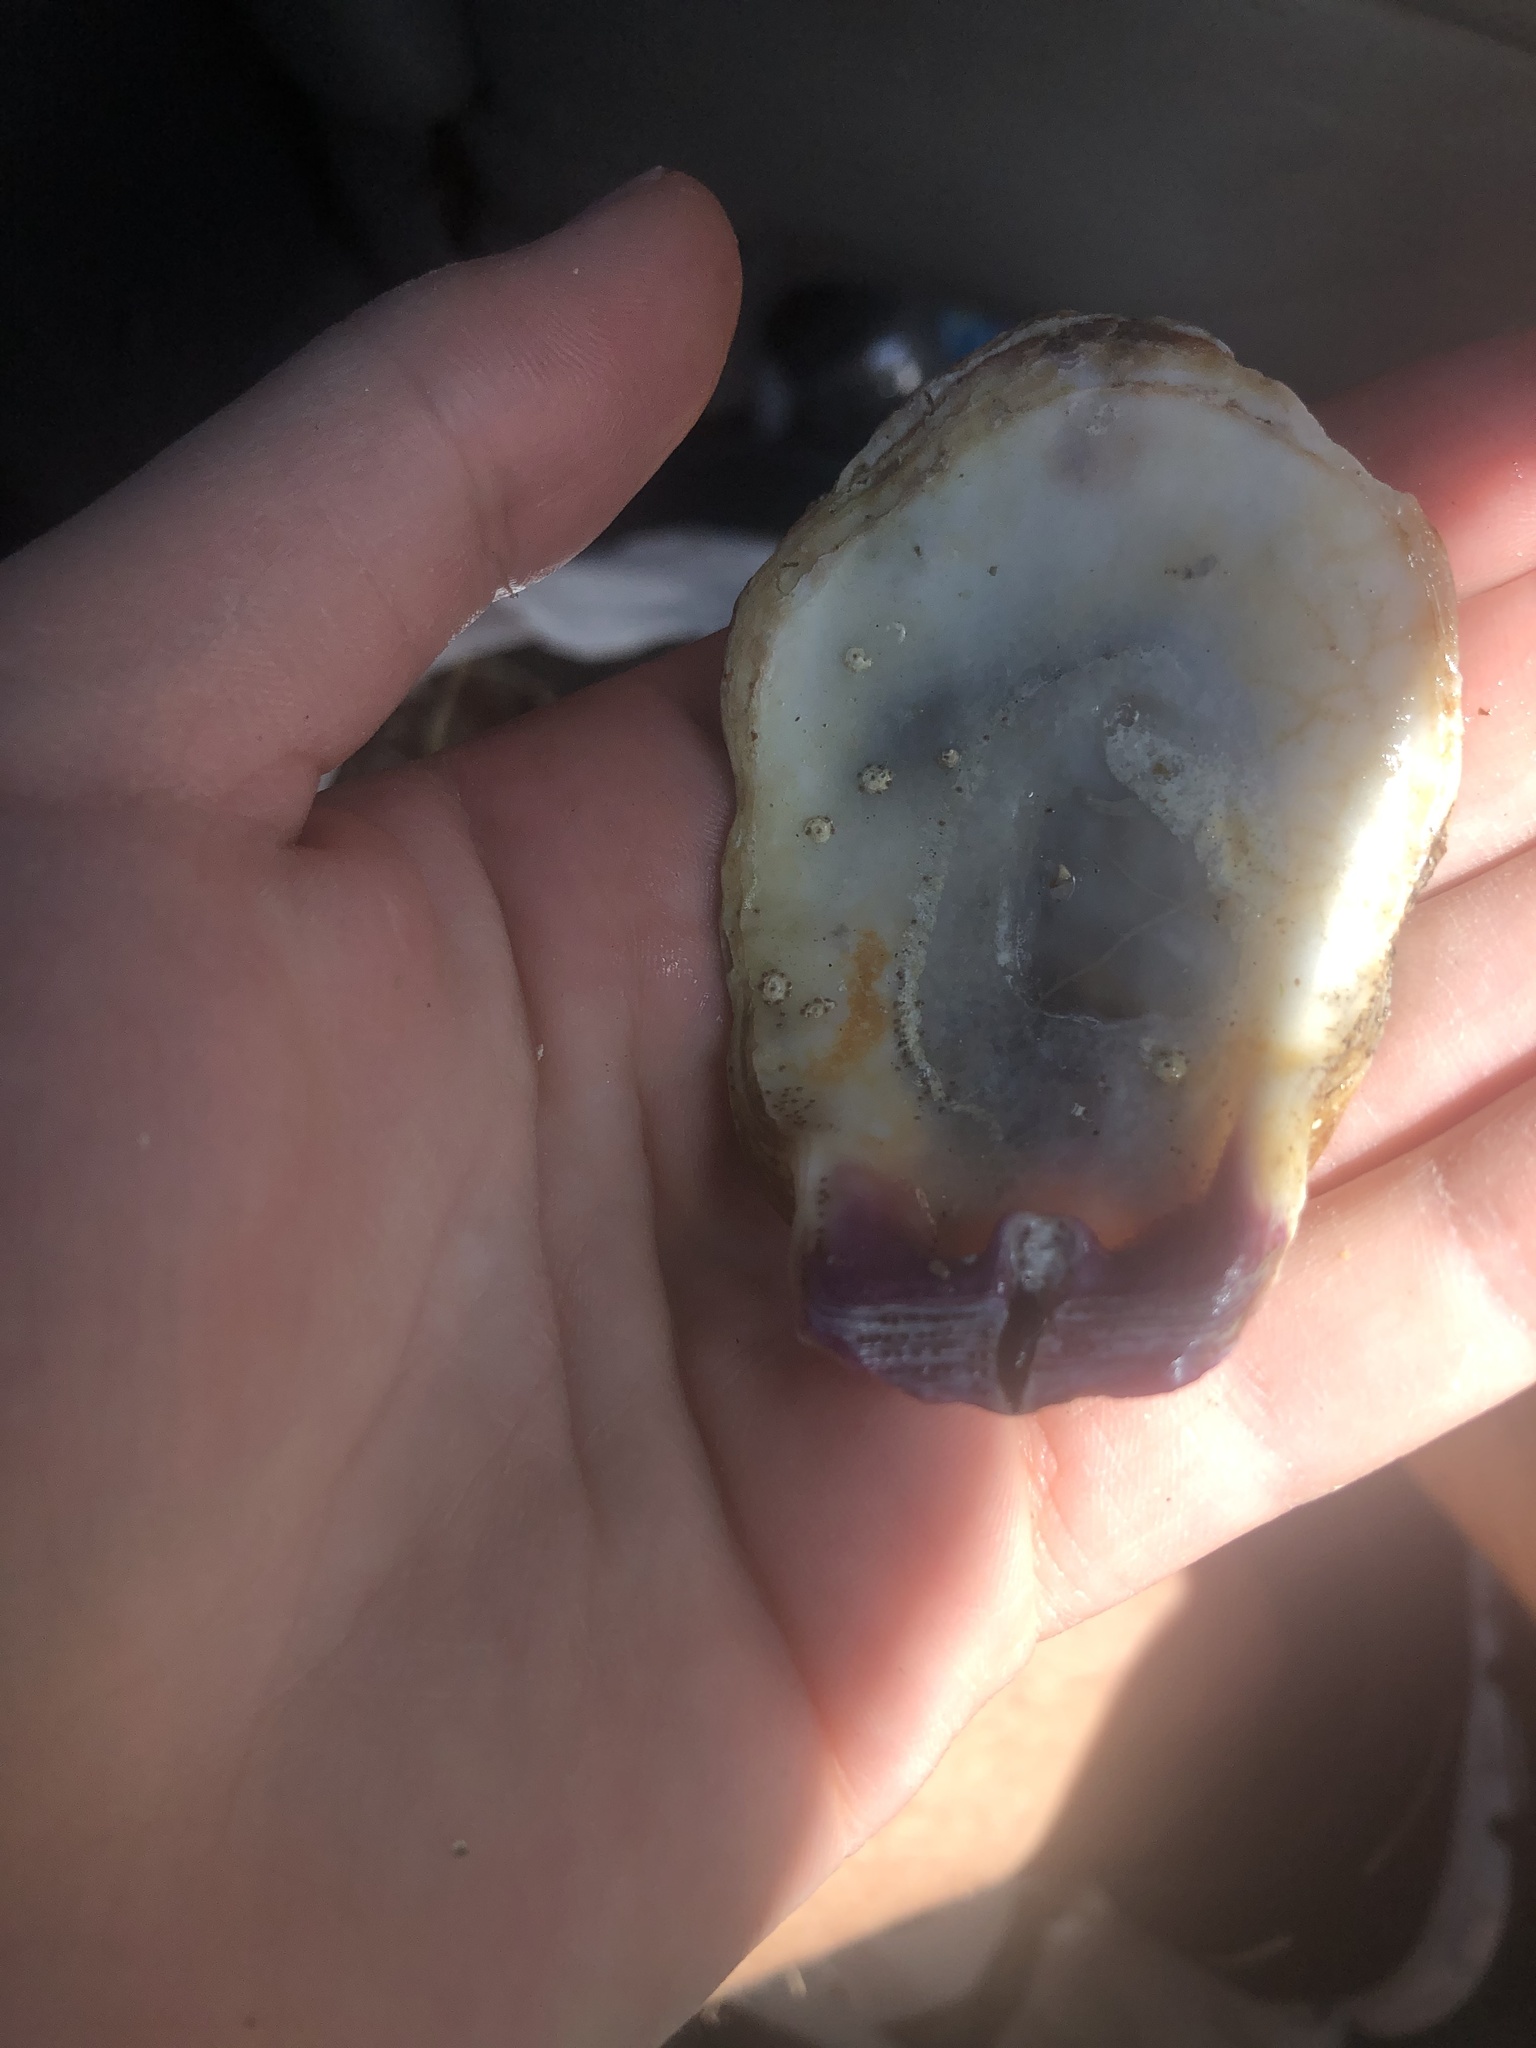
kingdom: Animalia
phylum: Mollusca
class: Bivalvia
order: Pectinida
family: Pectinidae
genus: Crassadoma
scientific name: Crassadoma gigantea
